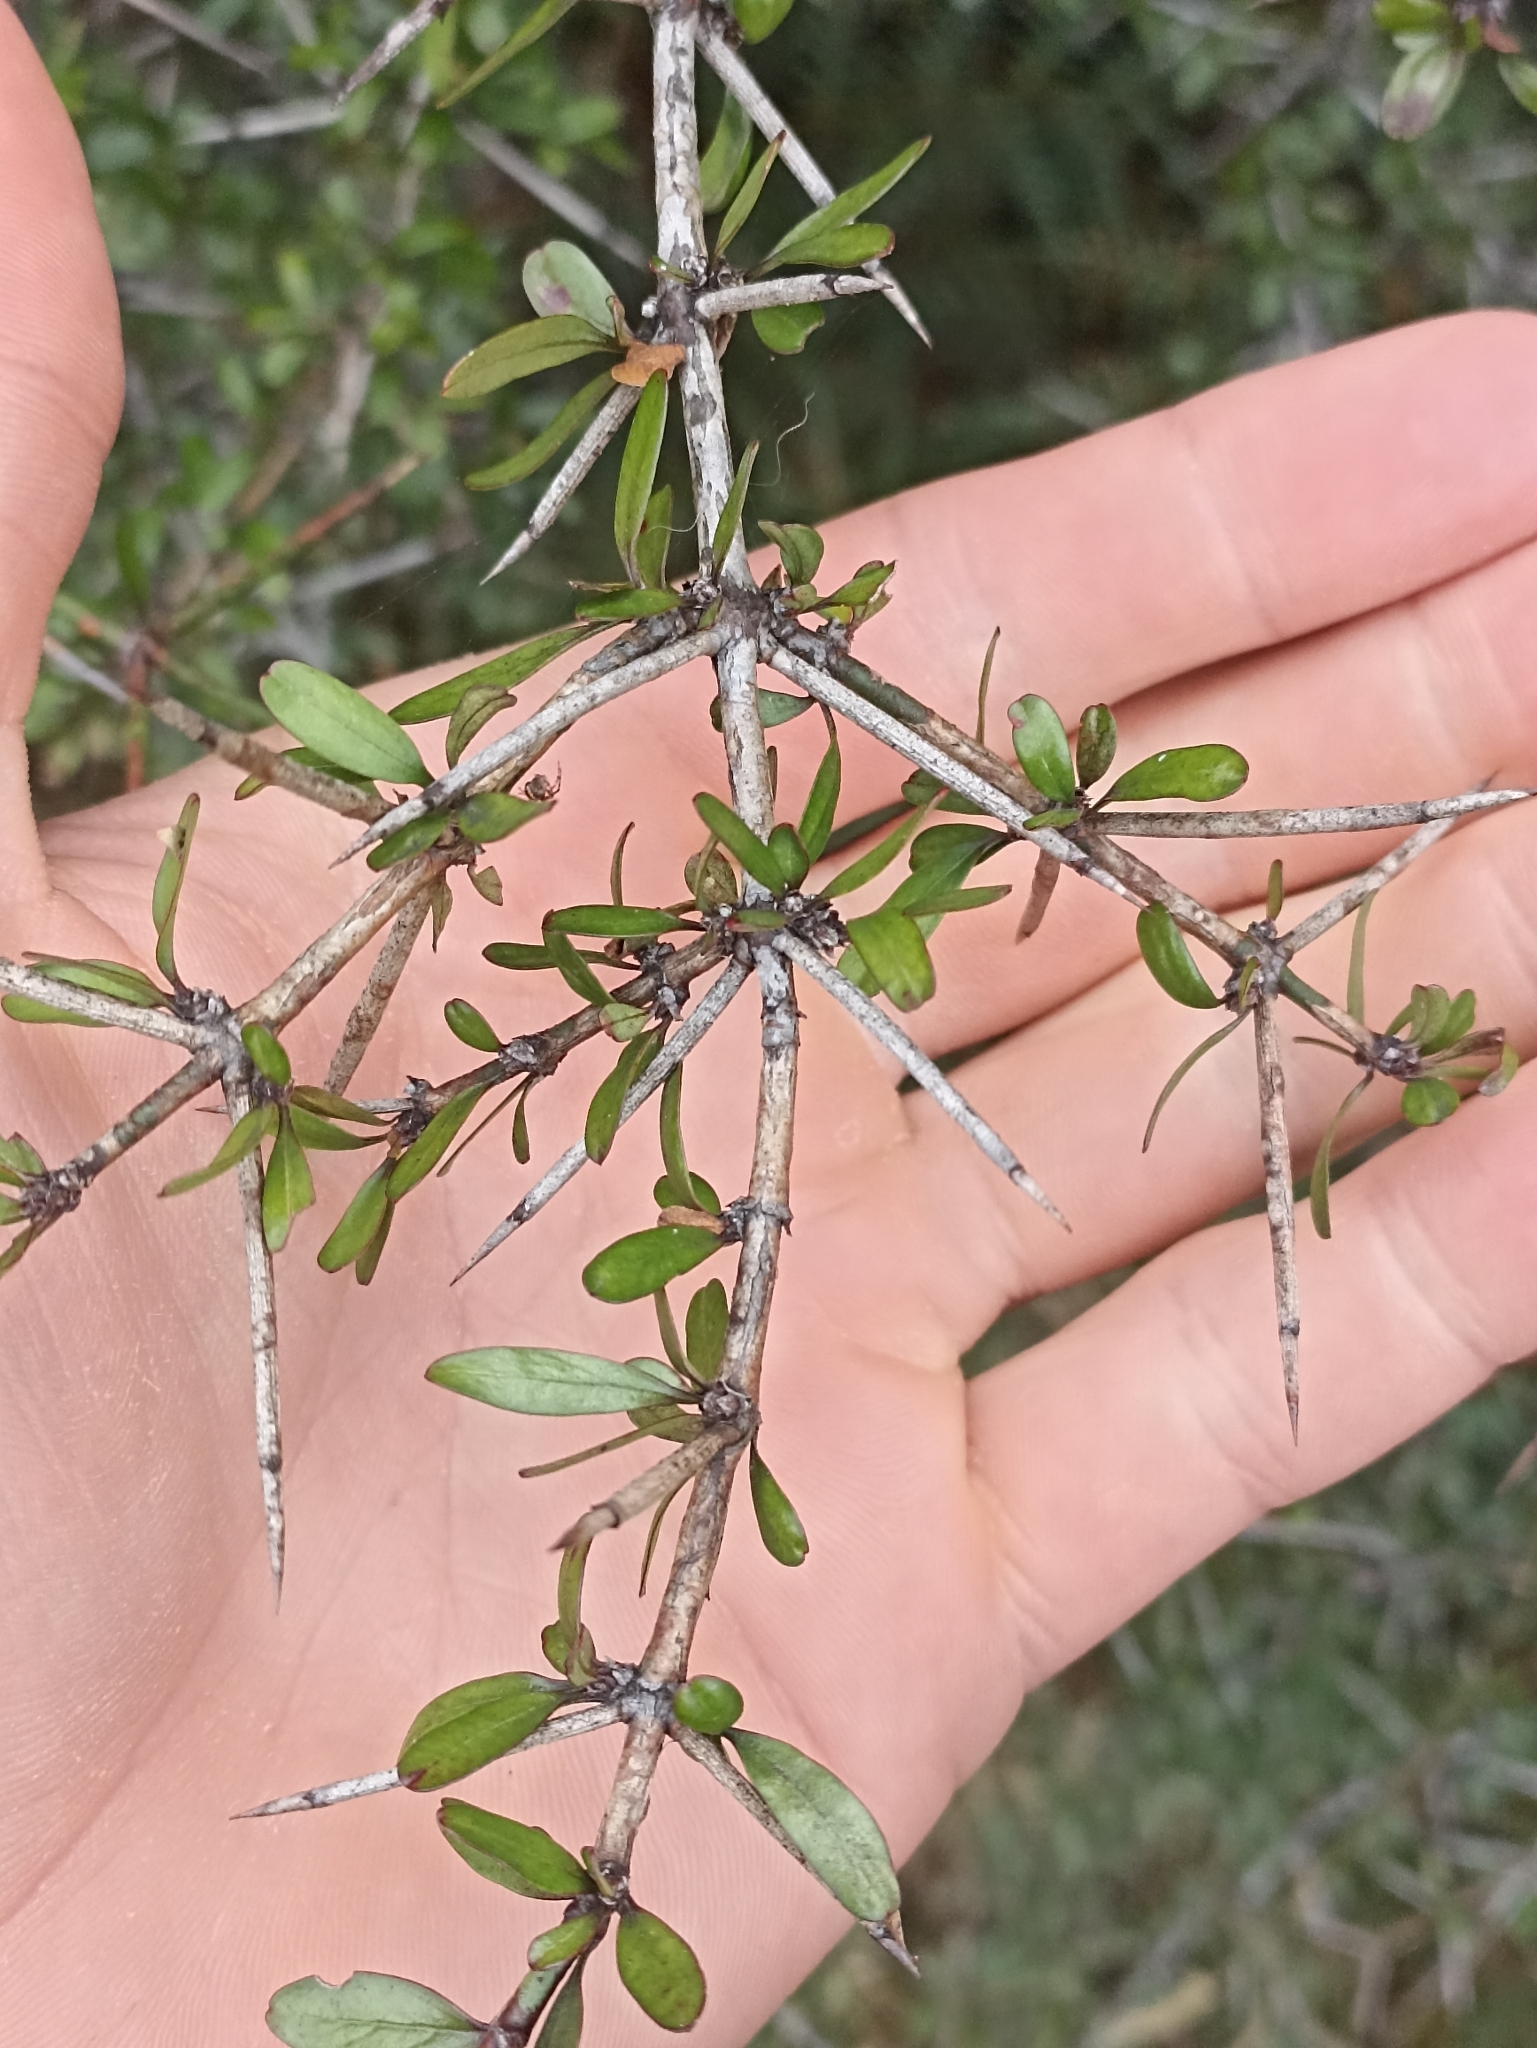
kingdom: Plantae
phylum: Tracheophyta
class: Magnoliopsida
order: Rosales
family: Rhamnaceae
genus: Discaria
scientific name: Discaria toumatou
